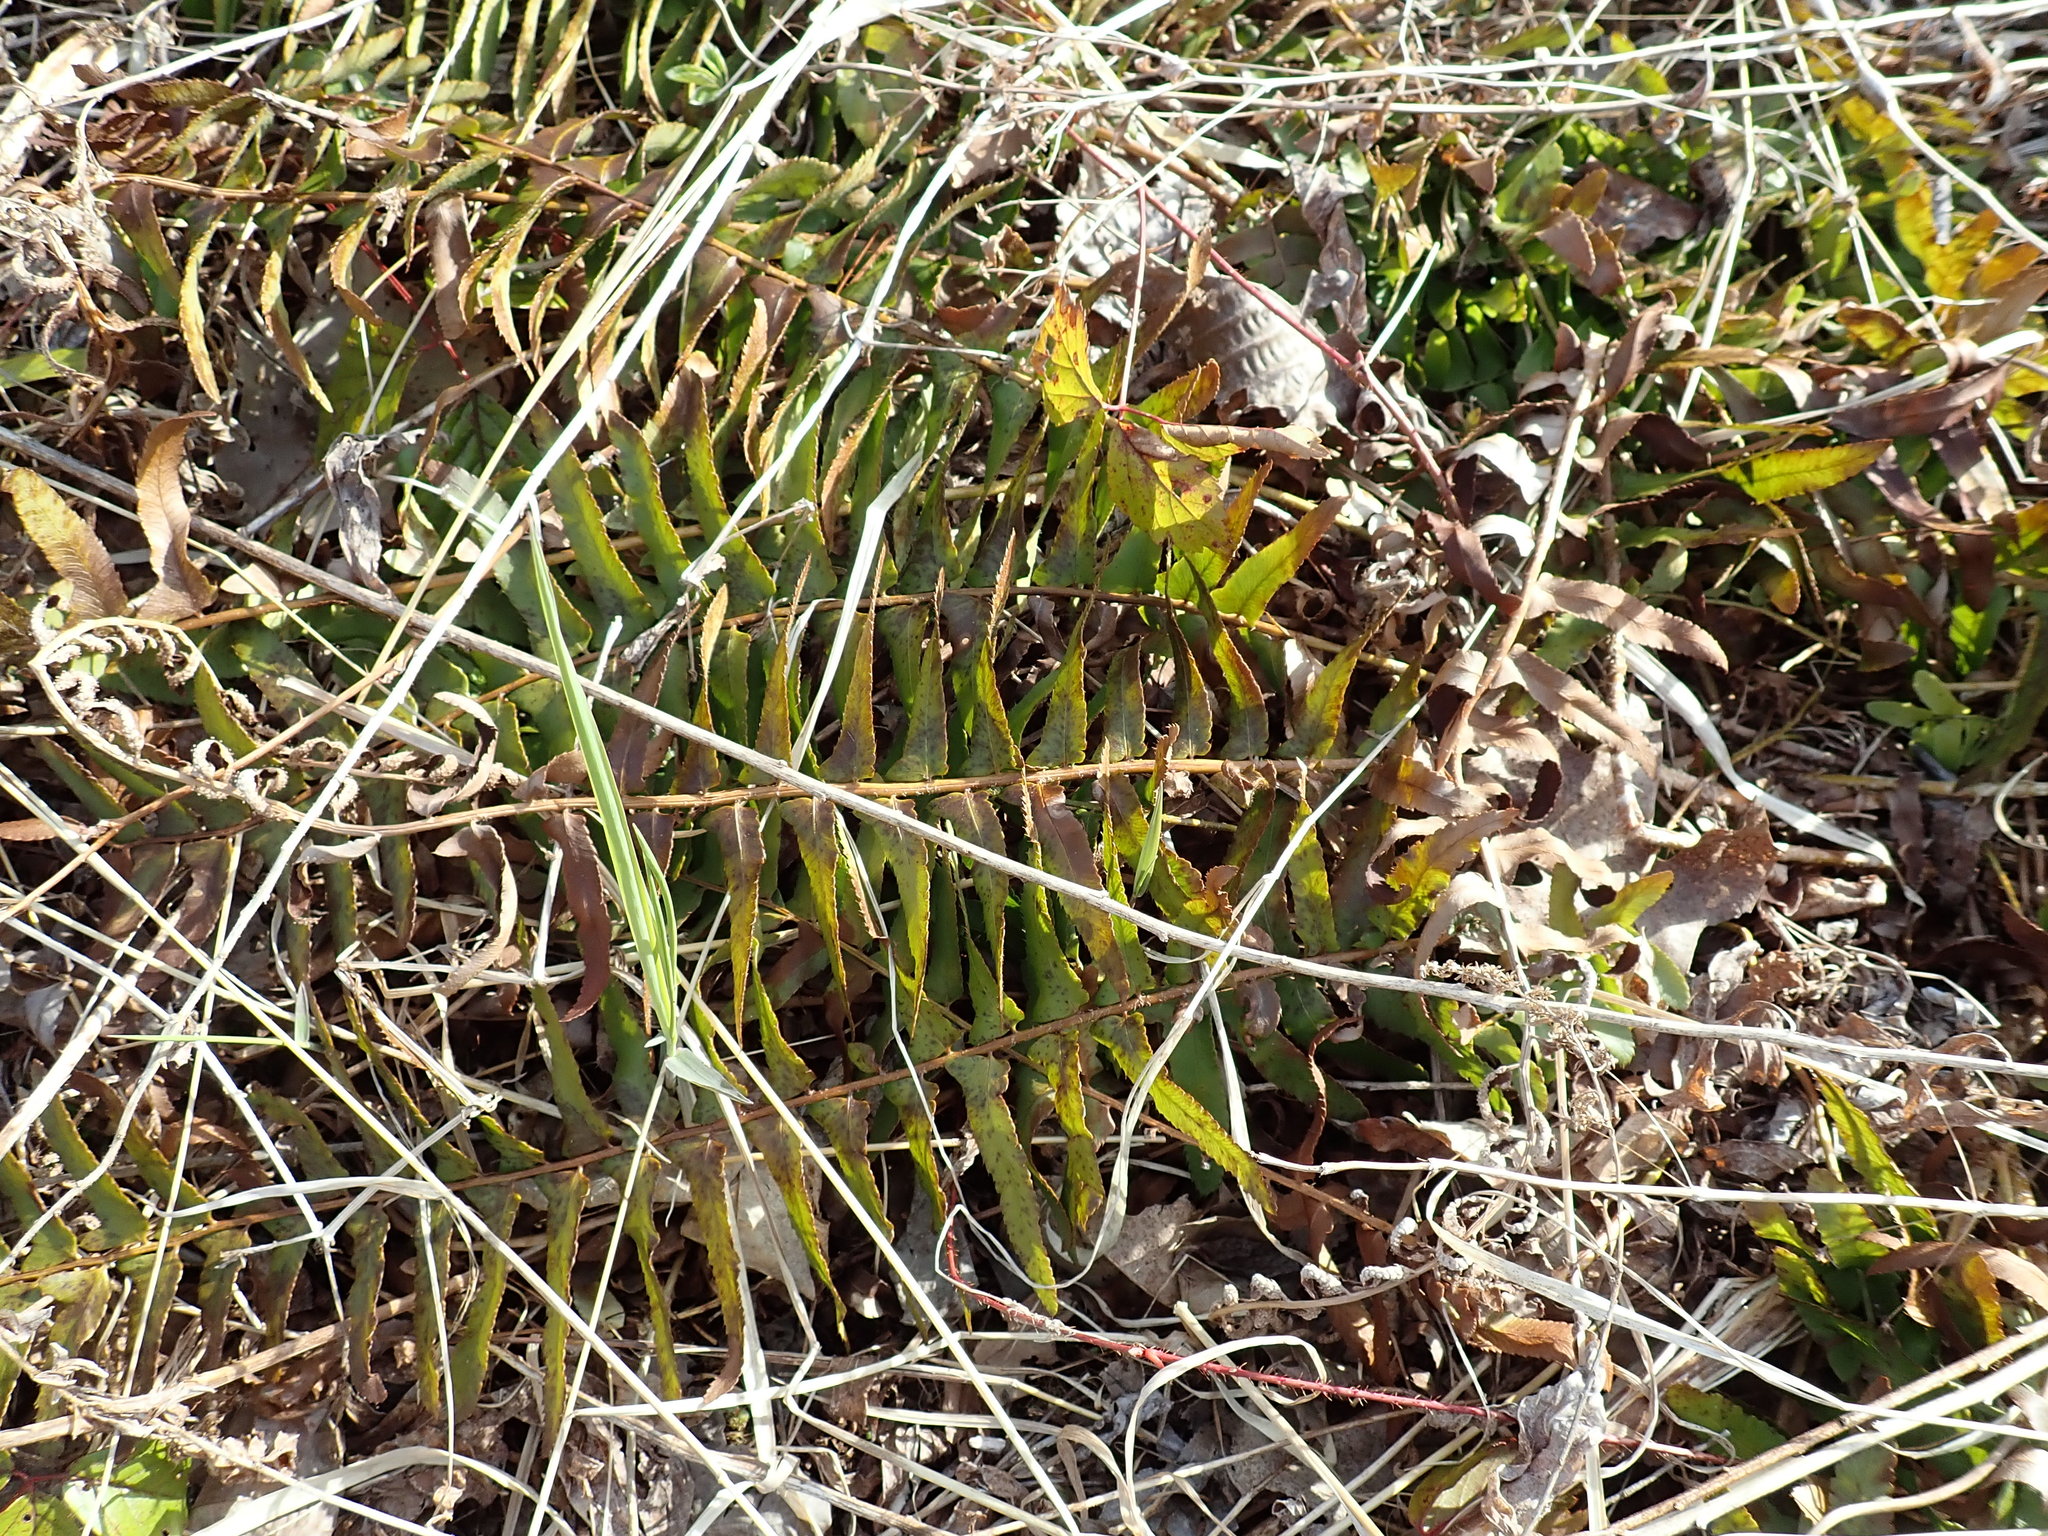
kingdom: Plantae
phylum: Tracheophyta
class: Polypodiopsida
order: Polypodiales
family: Dryopteridaceae
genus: Polystichum
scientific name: Polystichum acrostichoides
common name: Christmas fern
